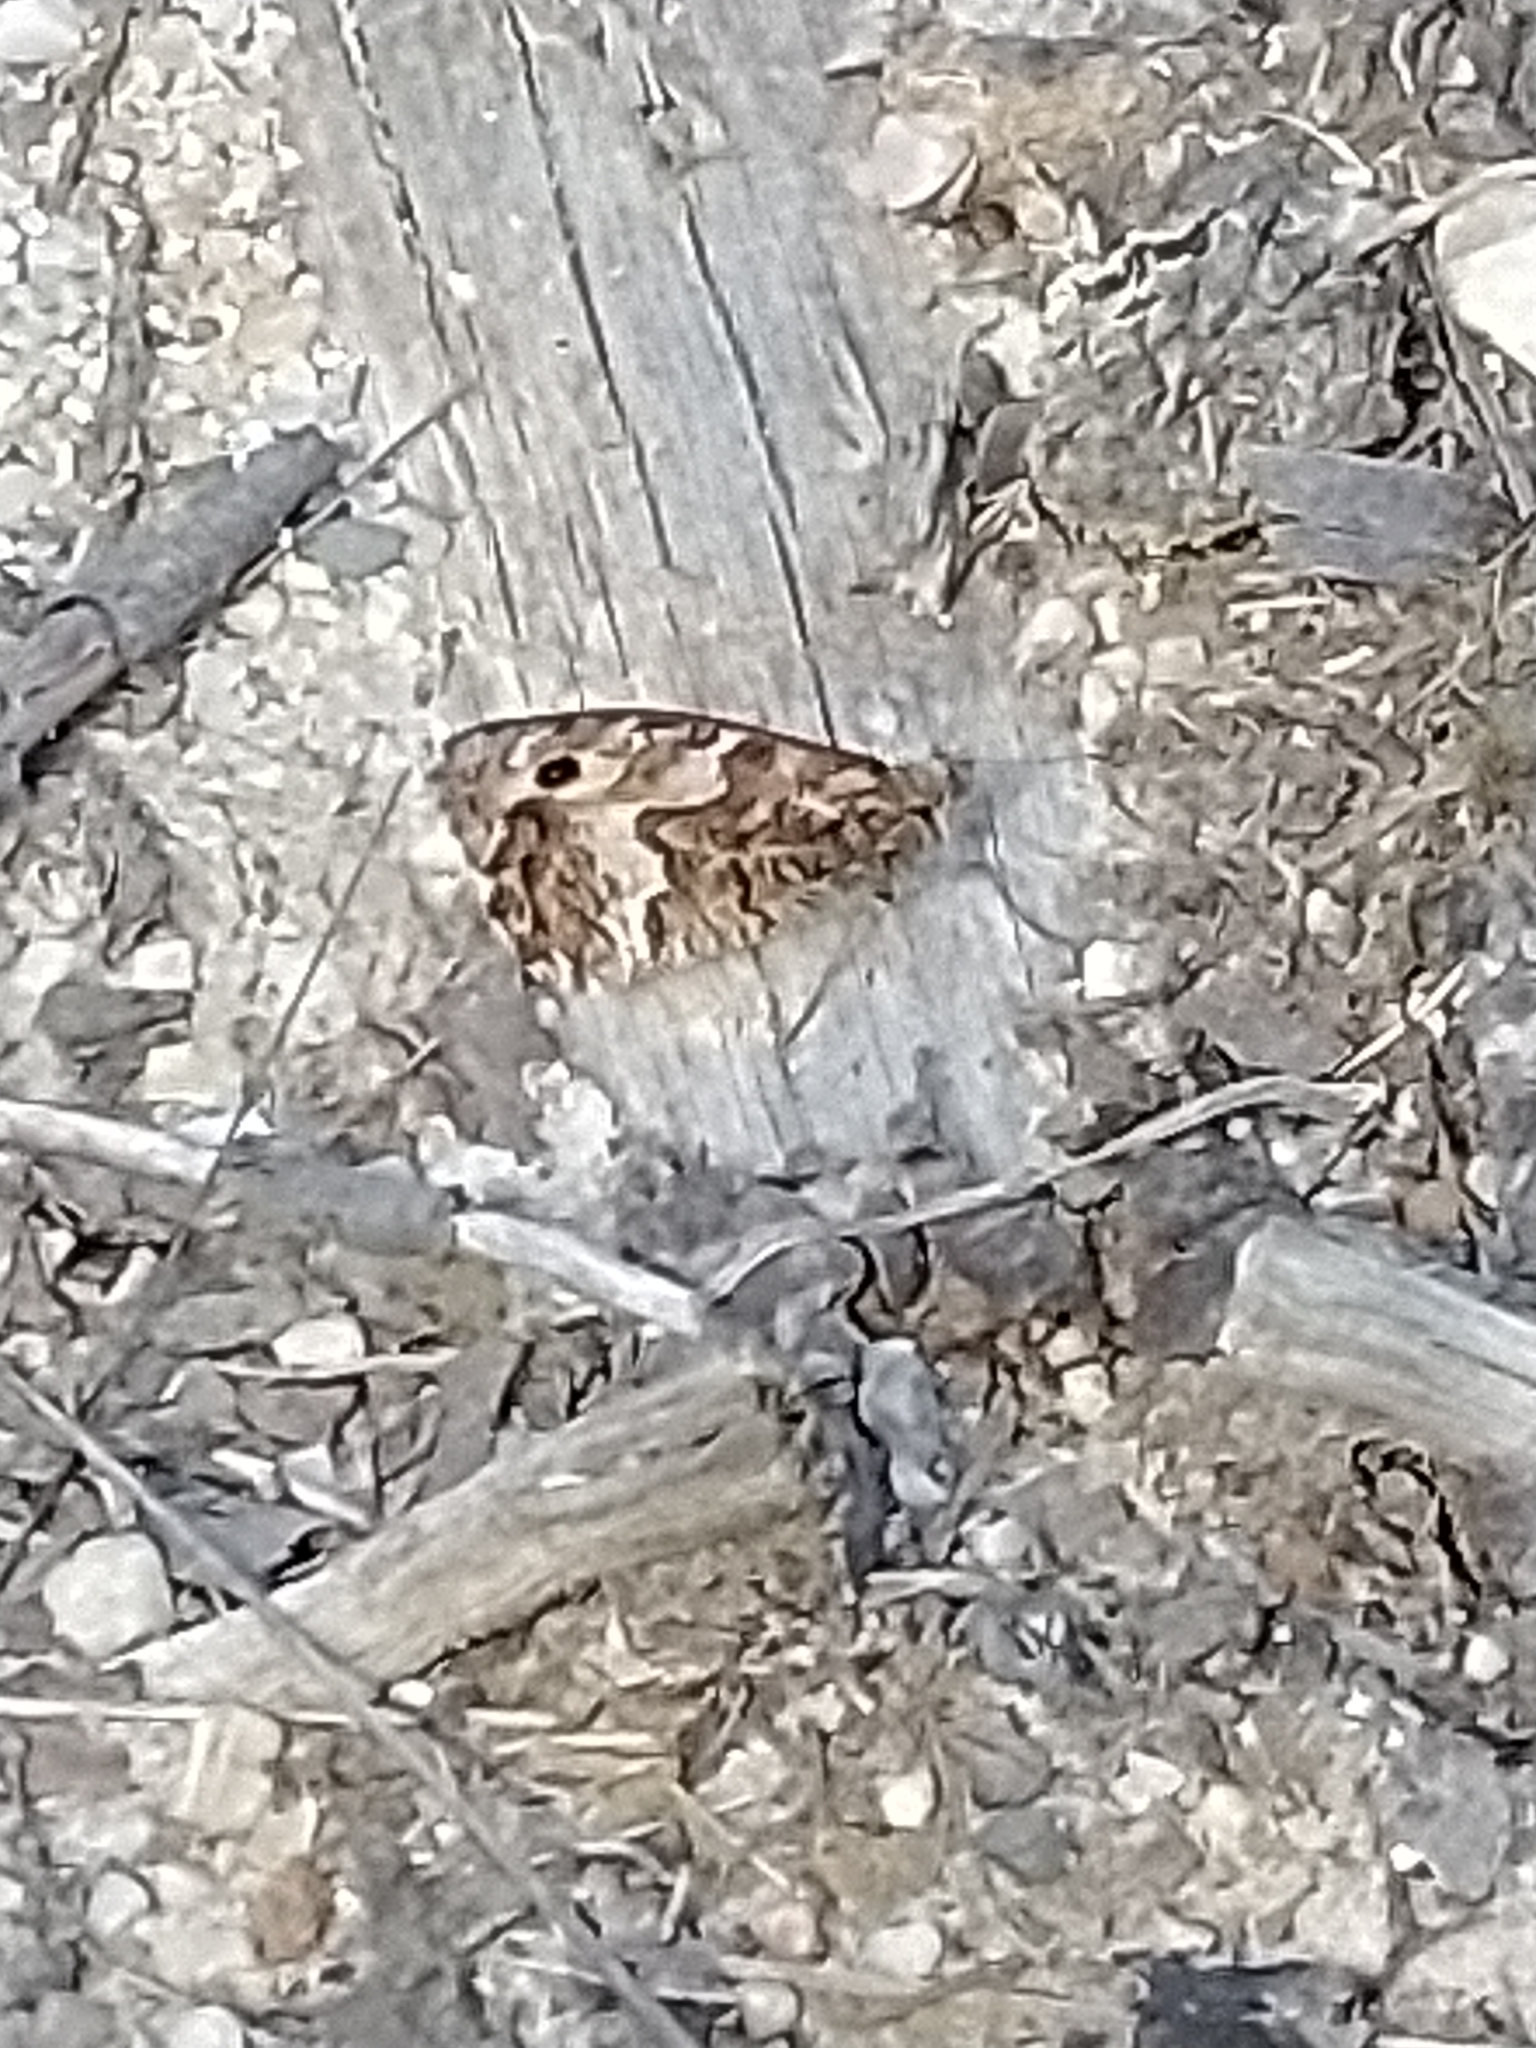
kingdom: Animalia
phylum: Arthropoda
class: Insecta
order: Lepidoptera
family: Nymphalidae
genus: Hipparchia
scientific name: Hipparchia semele
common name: Grayling
